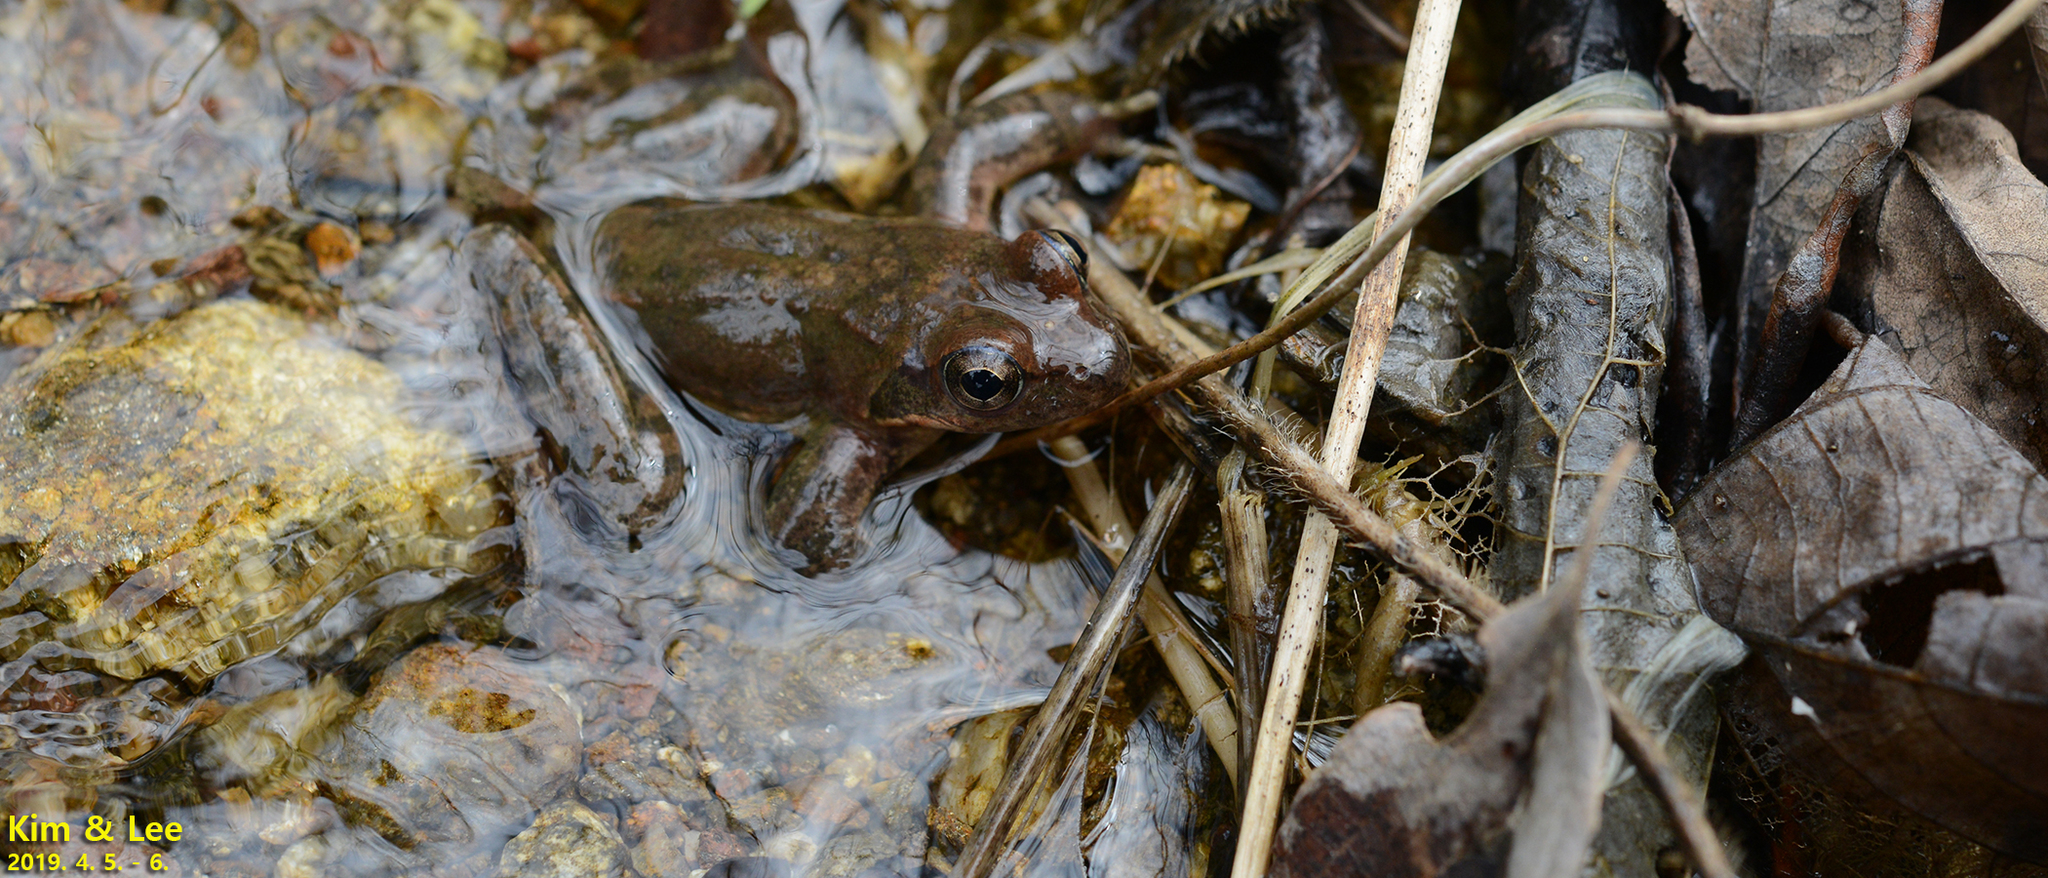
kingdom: Animalia
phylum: Chordata
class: Amphibia
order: Anura
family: Ranidae
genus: Rana
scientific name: Rana huanrenensis
